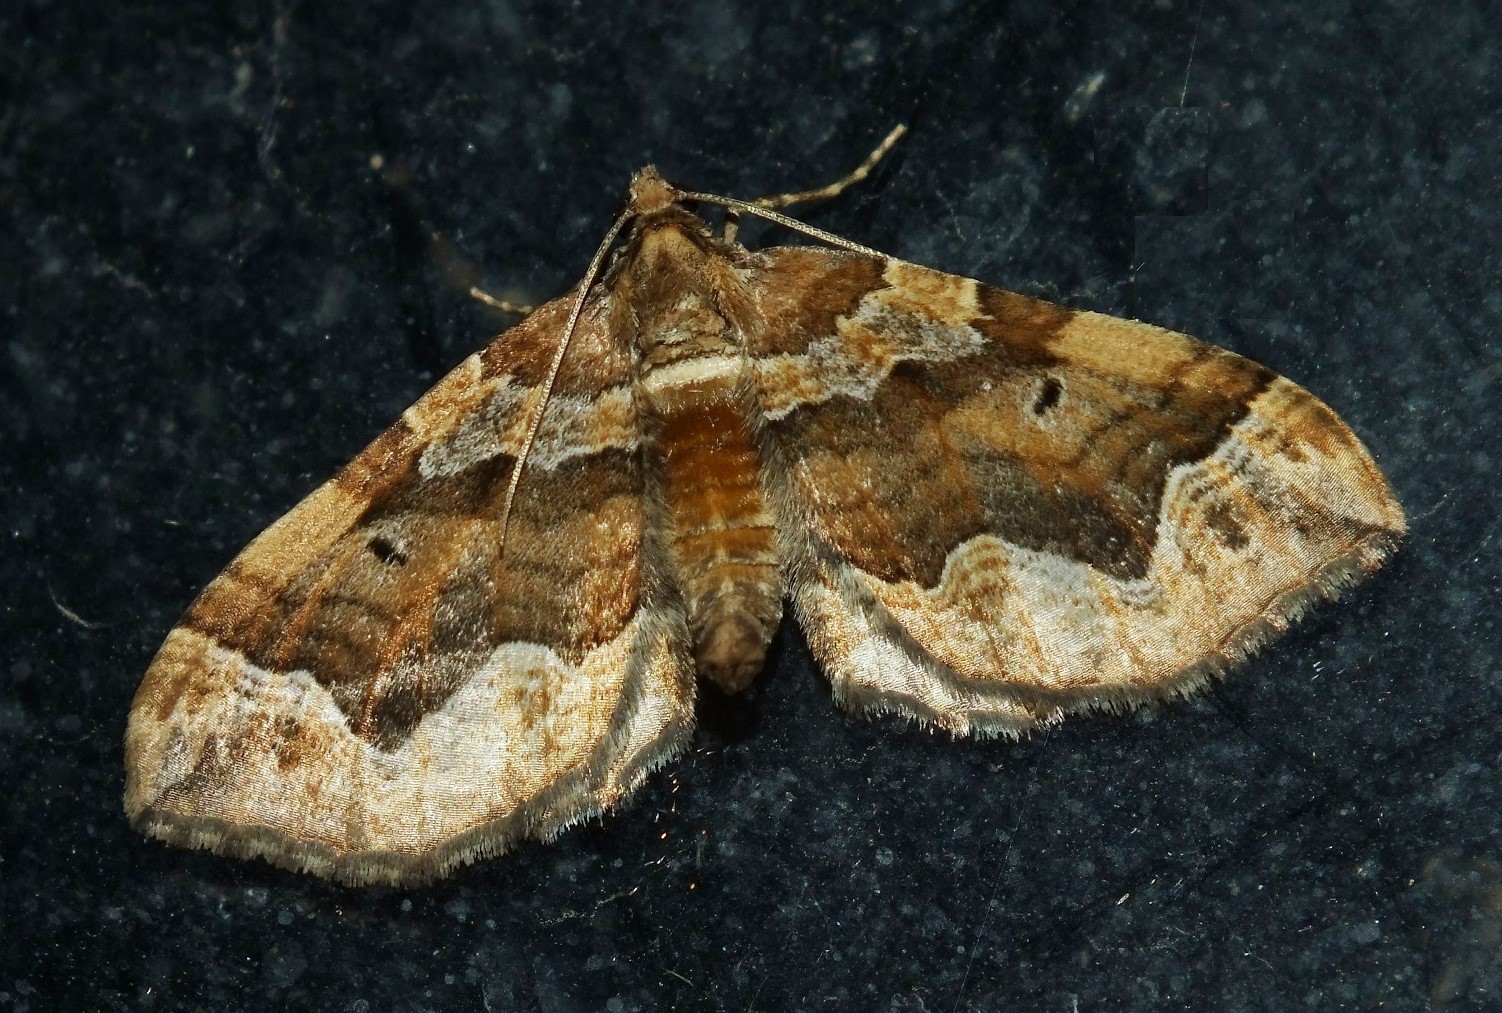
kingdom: Animalia
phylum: Arthropoda
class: Insecta
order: Lepidoptera
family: Geometridae
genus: Pelurga
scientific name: Pelurga comitata
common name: Dark spinach
